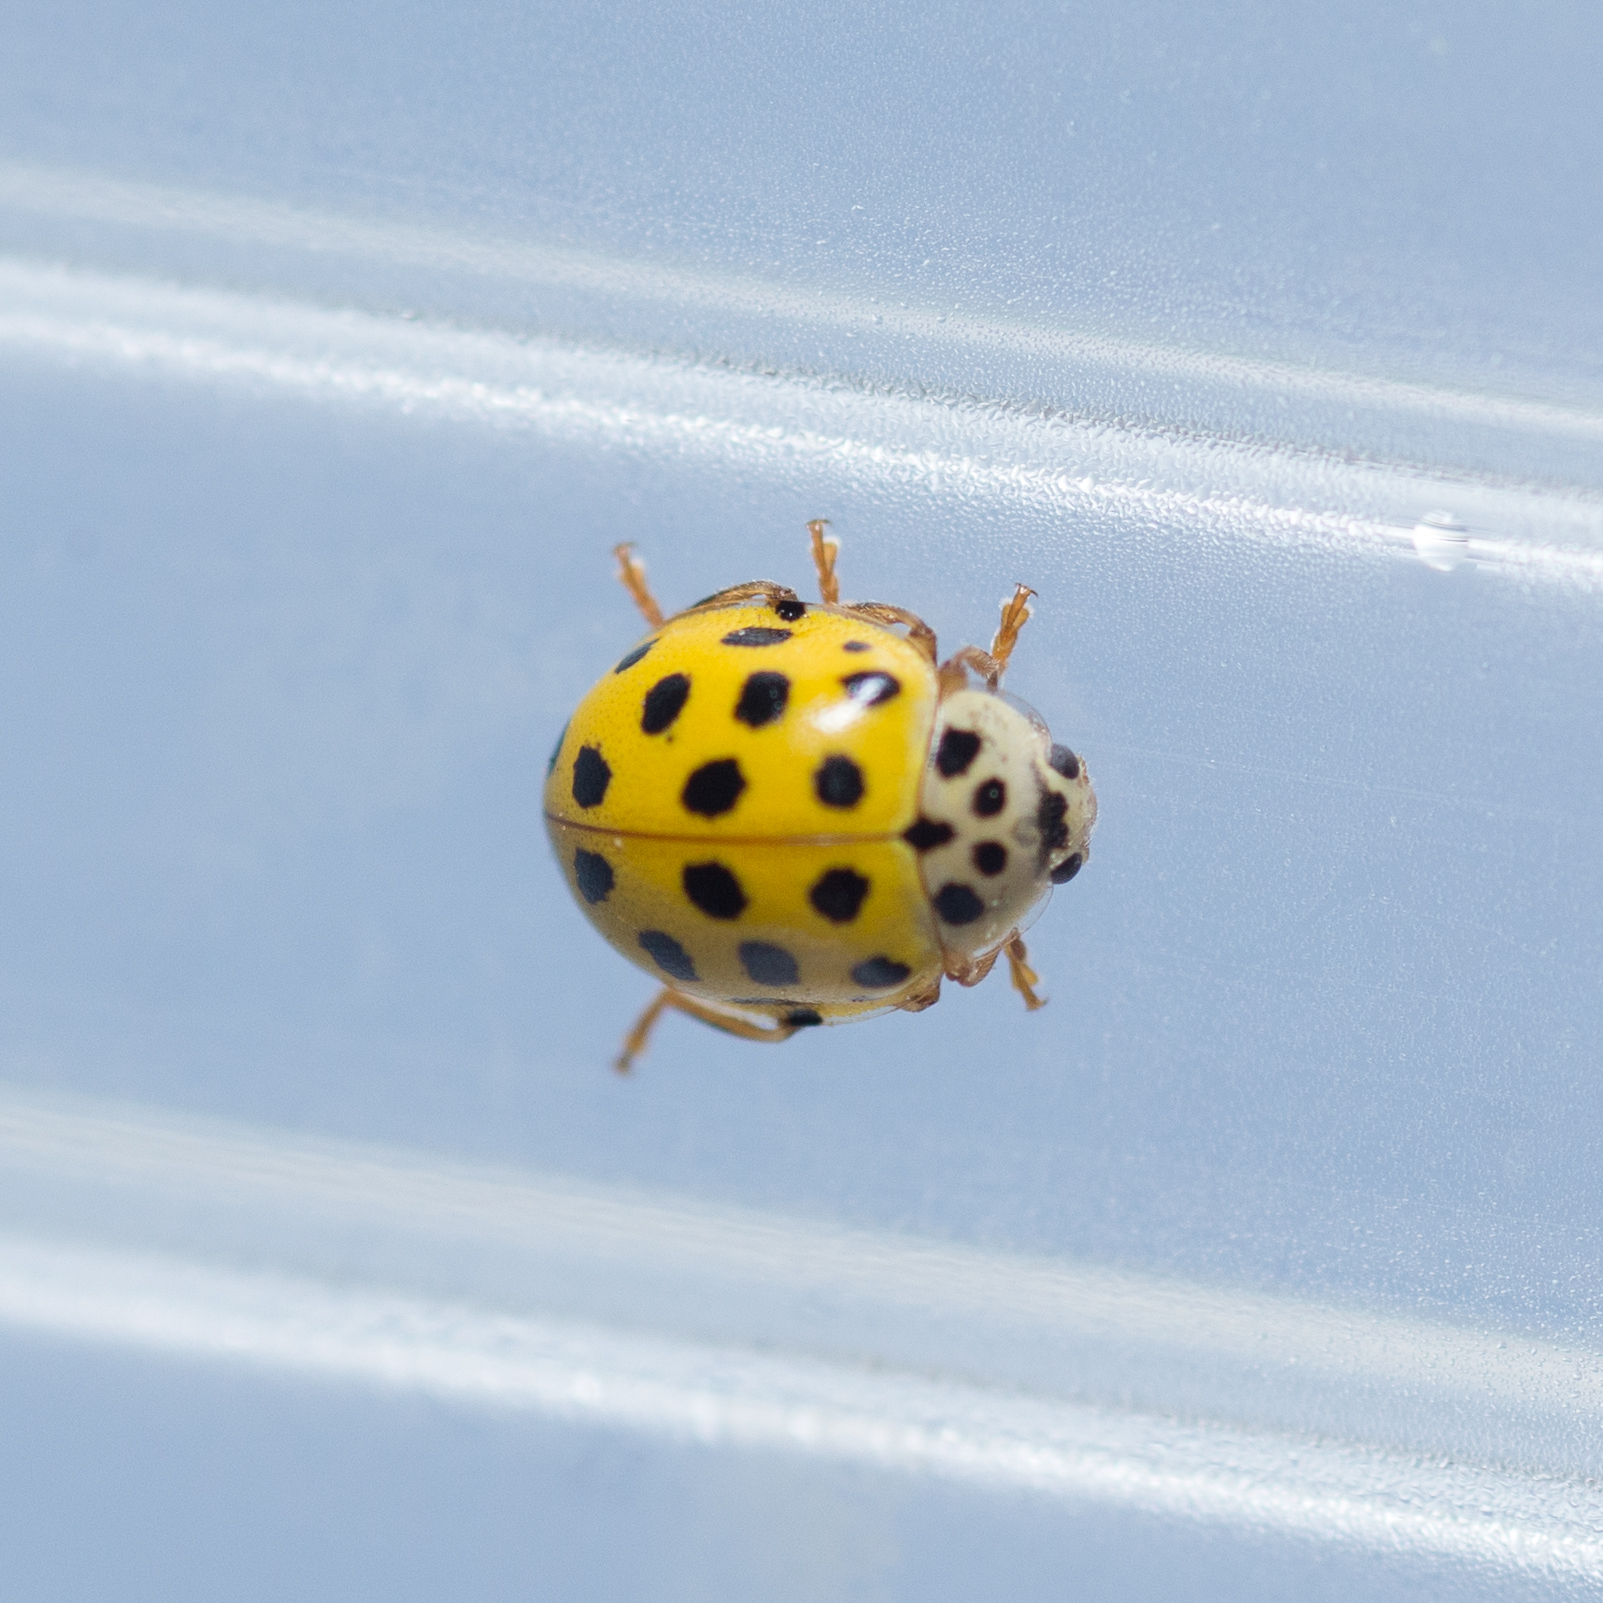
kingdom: Animalia
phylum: Arthropoda
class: Insecta
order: Coleoptera
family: Coccinellidae
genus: Psyllobora
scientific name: Psyllobora vigintiduopunctata
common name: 22-spot ladybird
